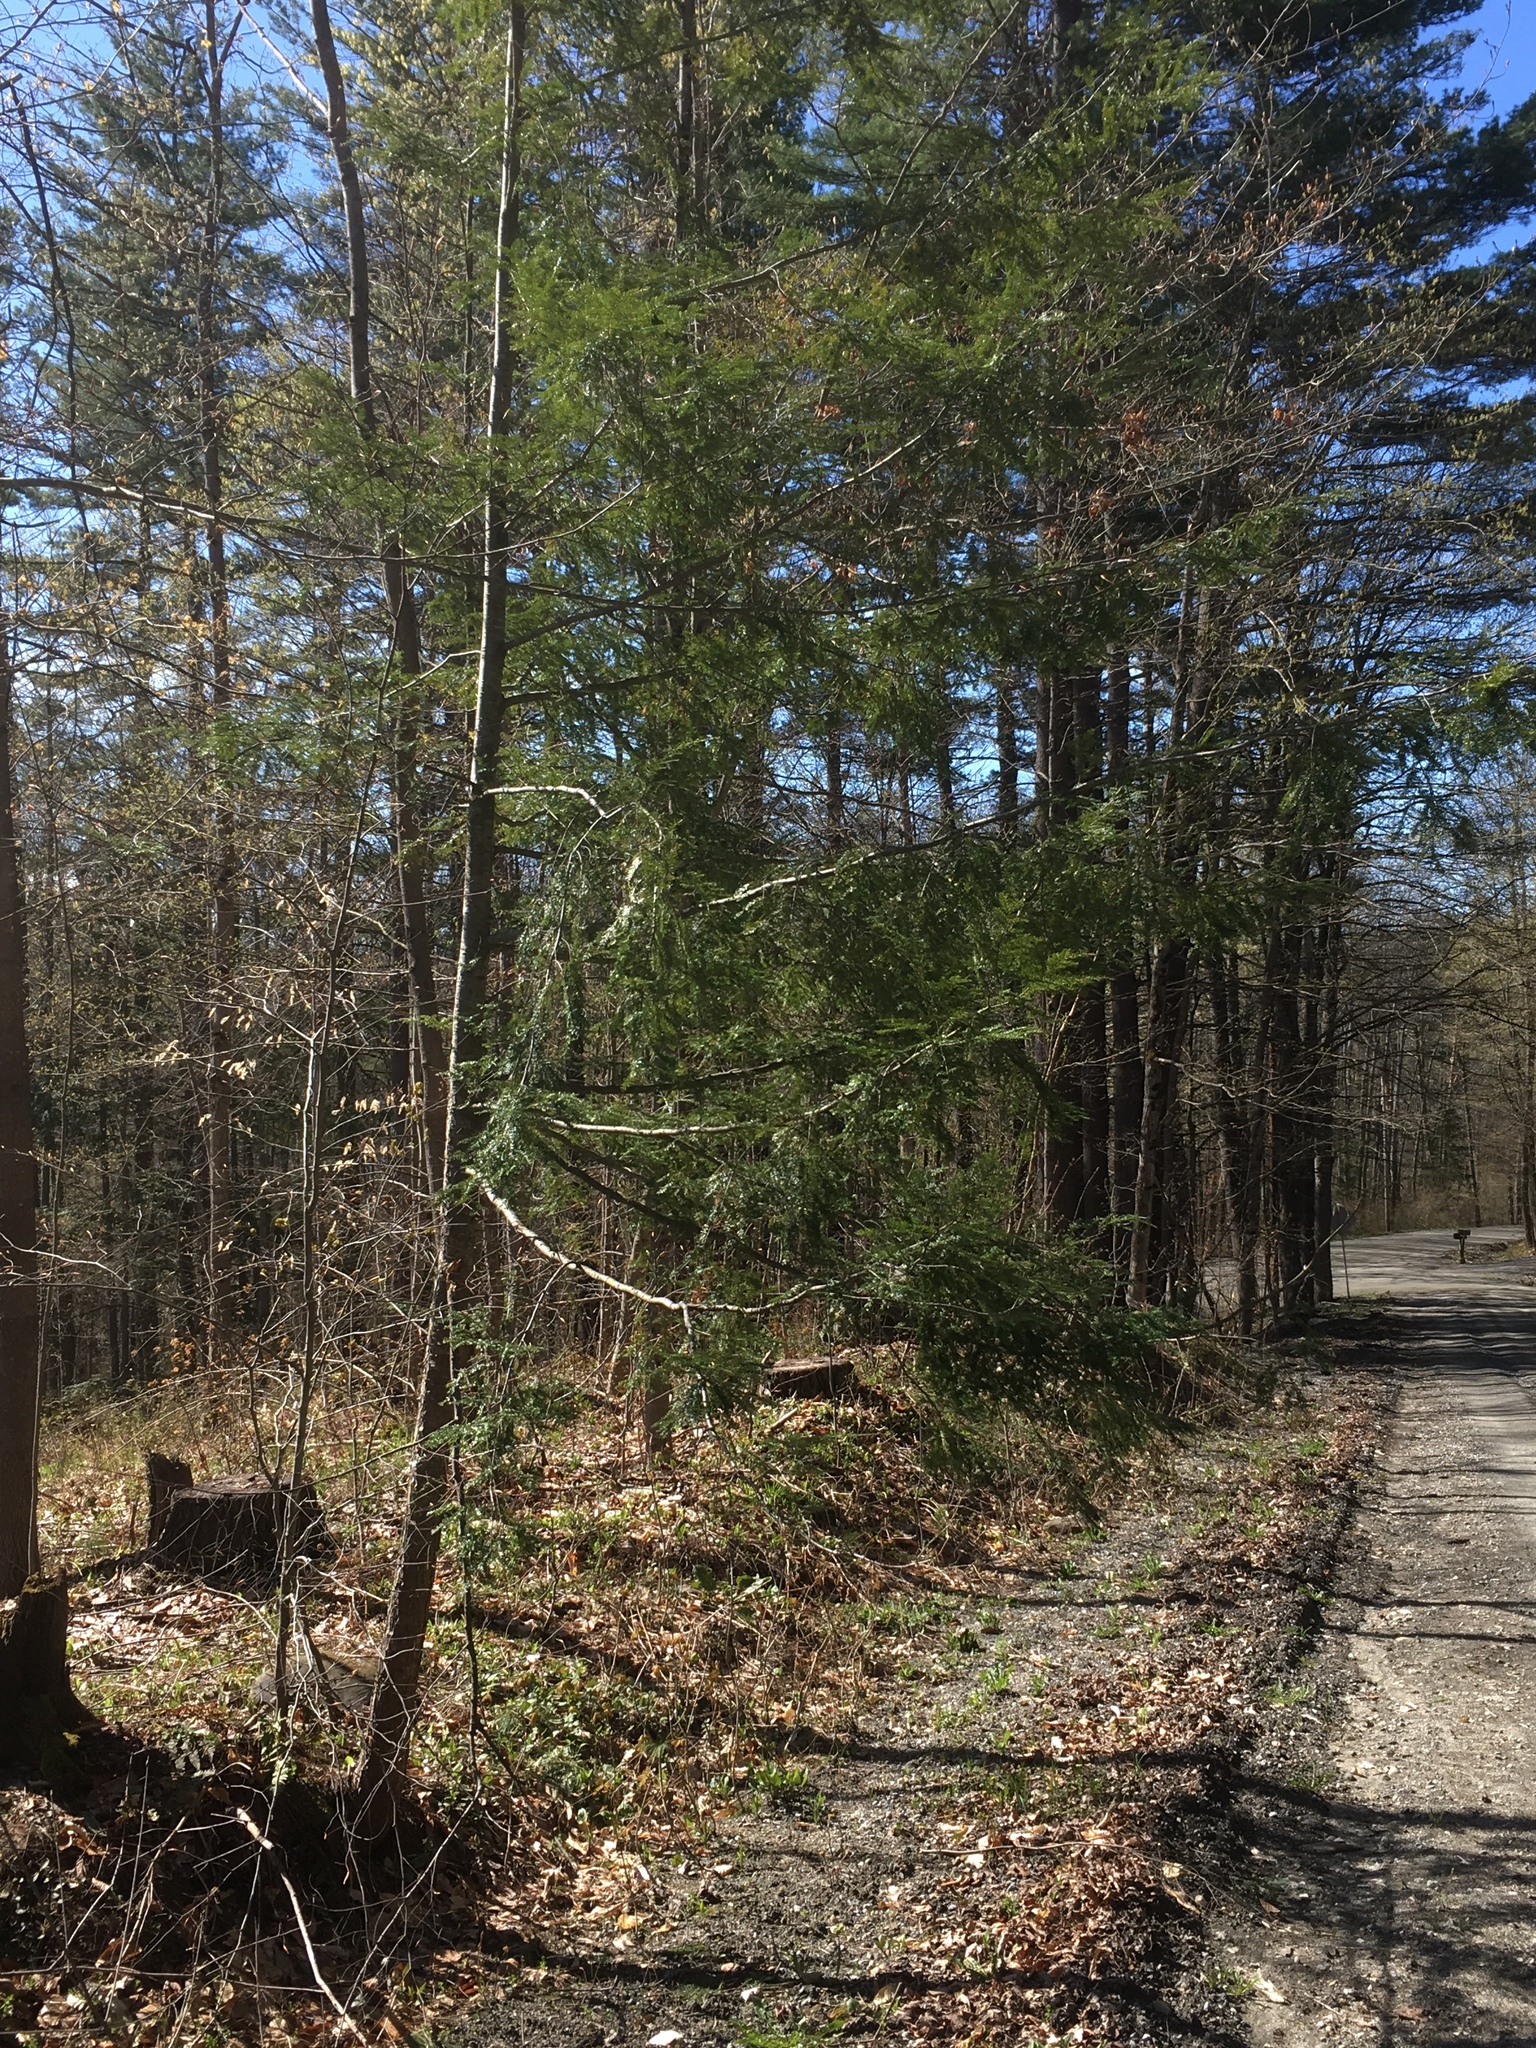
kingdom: Plantae
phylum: Tracheophyta
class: Pinopsida
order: Pinales
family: Pinaceae
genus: Tsuga
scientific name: Tsuga canadensis
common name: Eastern hemlock
